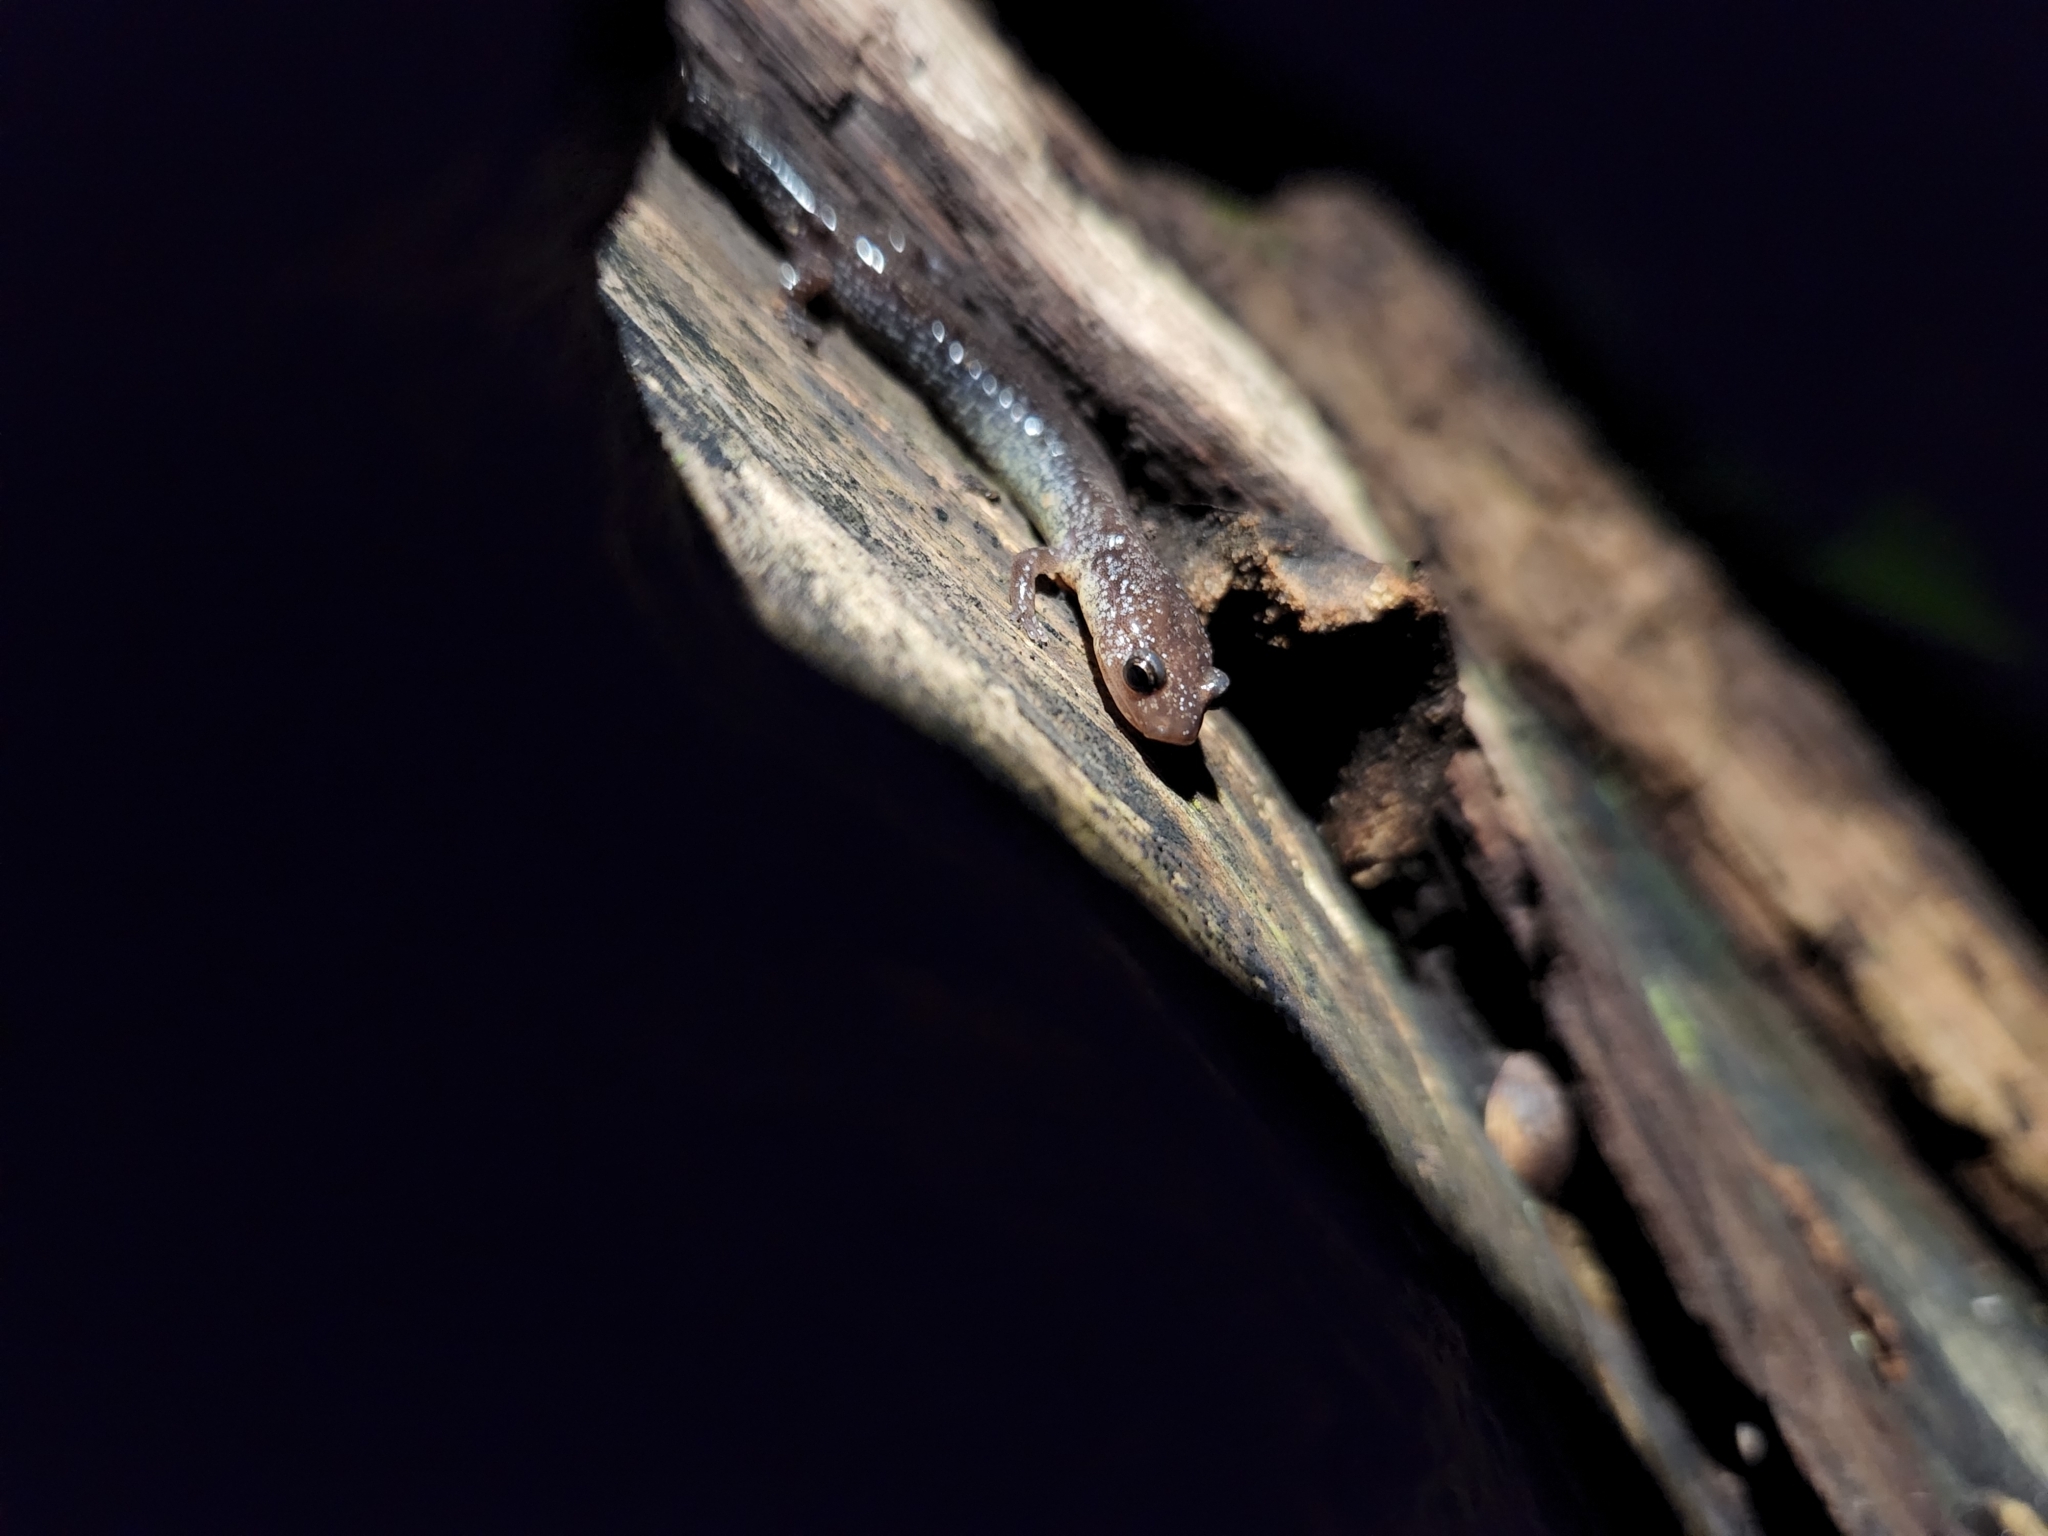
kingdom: Animalia
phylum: Chordata
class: Amphibia
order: Caudata
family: Plethodontidae
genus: Plethodon
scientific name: Plethodon cinereus
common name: Redback salamander
